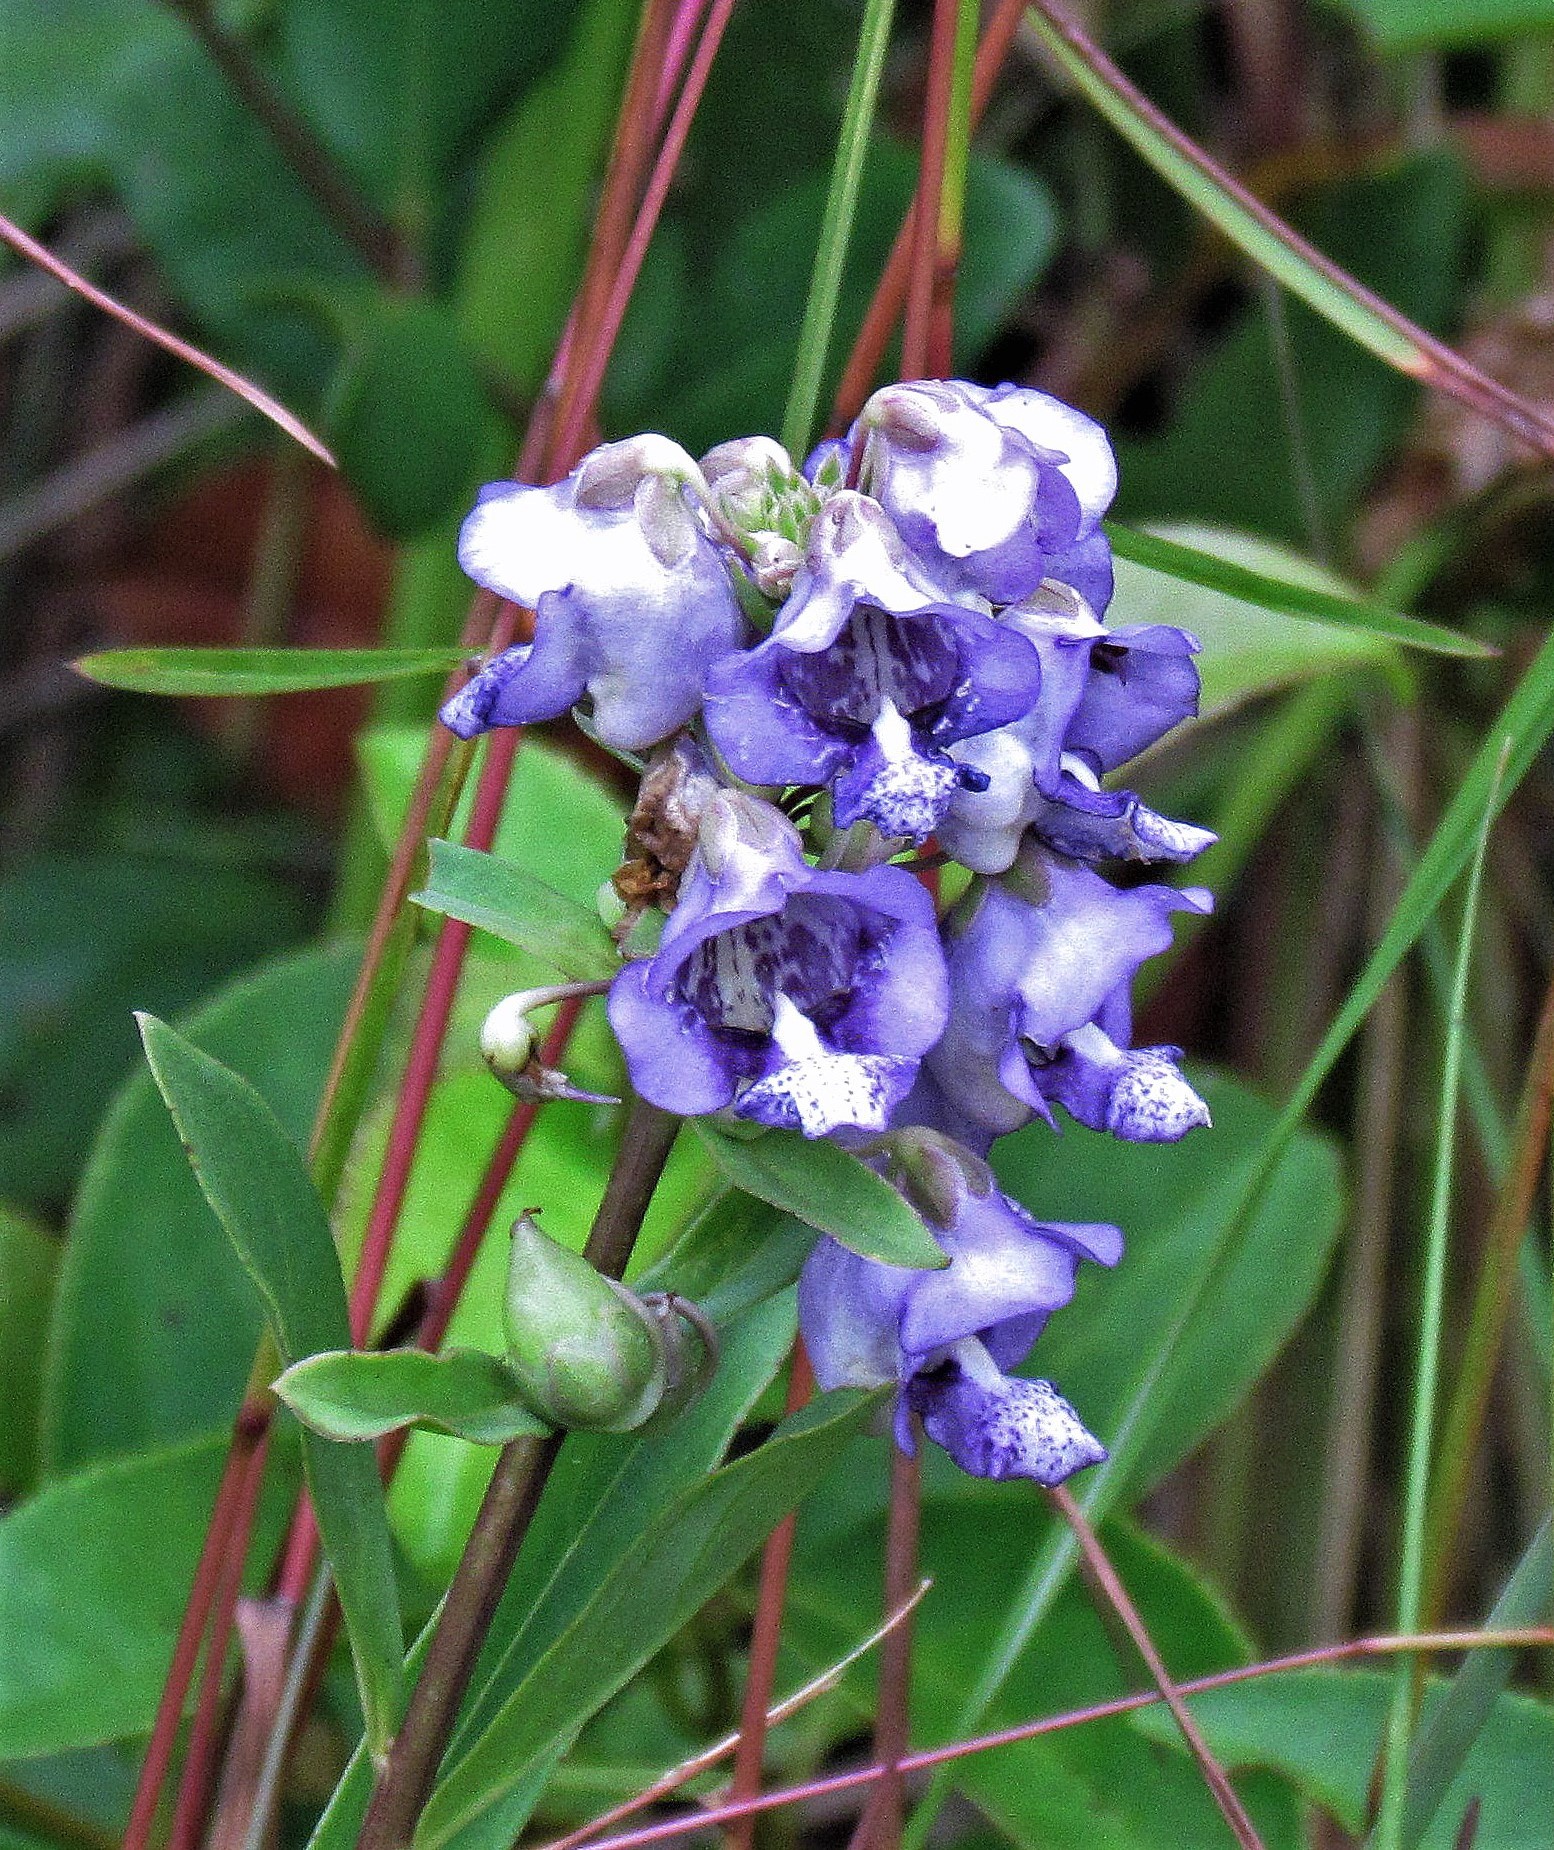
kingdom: Plantae
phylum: Tracheophyta
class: Magnoliopsida
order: Lamiales
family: Plantaginaceae
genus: Angelonia
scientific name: Angelonia integerrima
